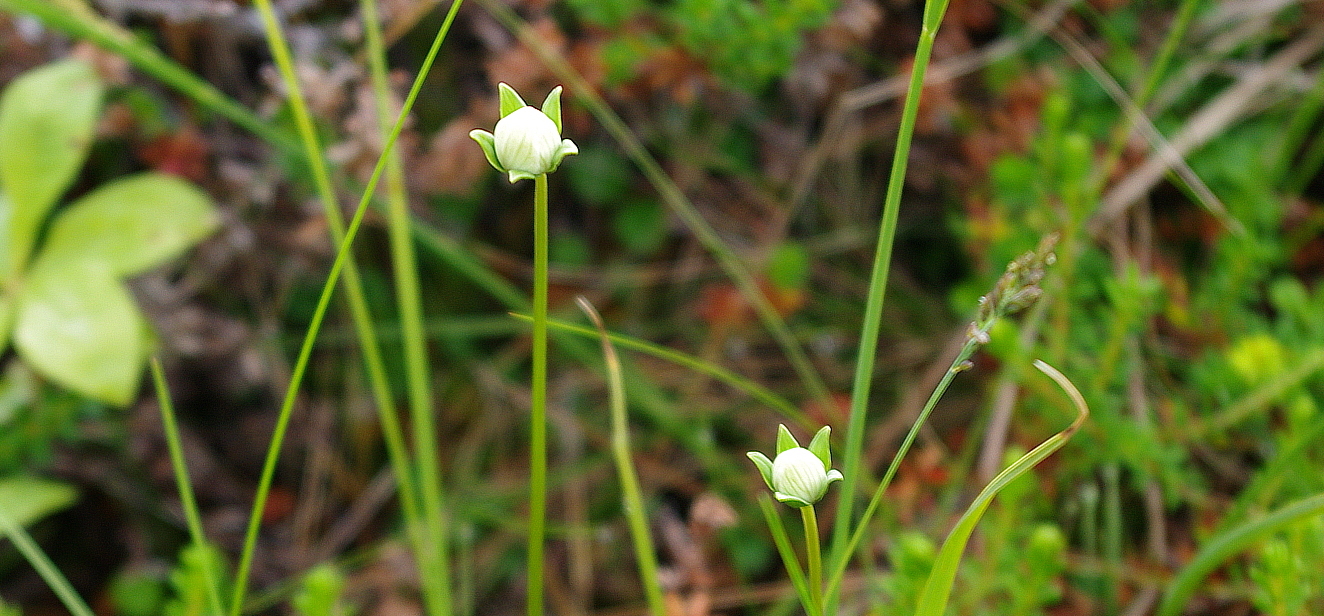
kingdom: Plantae
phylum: Tracheophyta
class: Magnoliopsida
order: Celastrales
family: Parnassiaceae
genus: Parnassia
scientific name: Parnassia palustris
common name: Grass-of-parnassus
